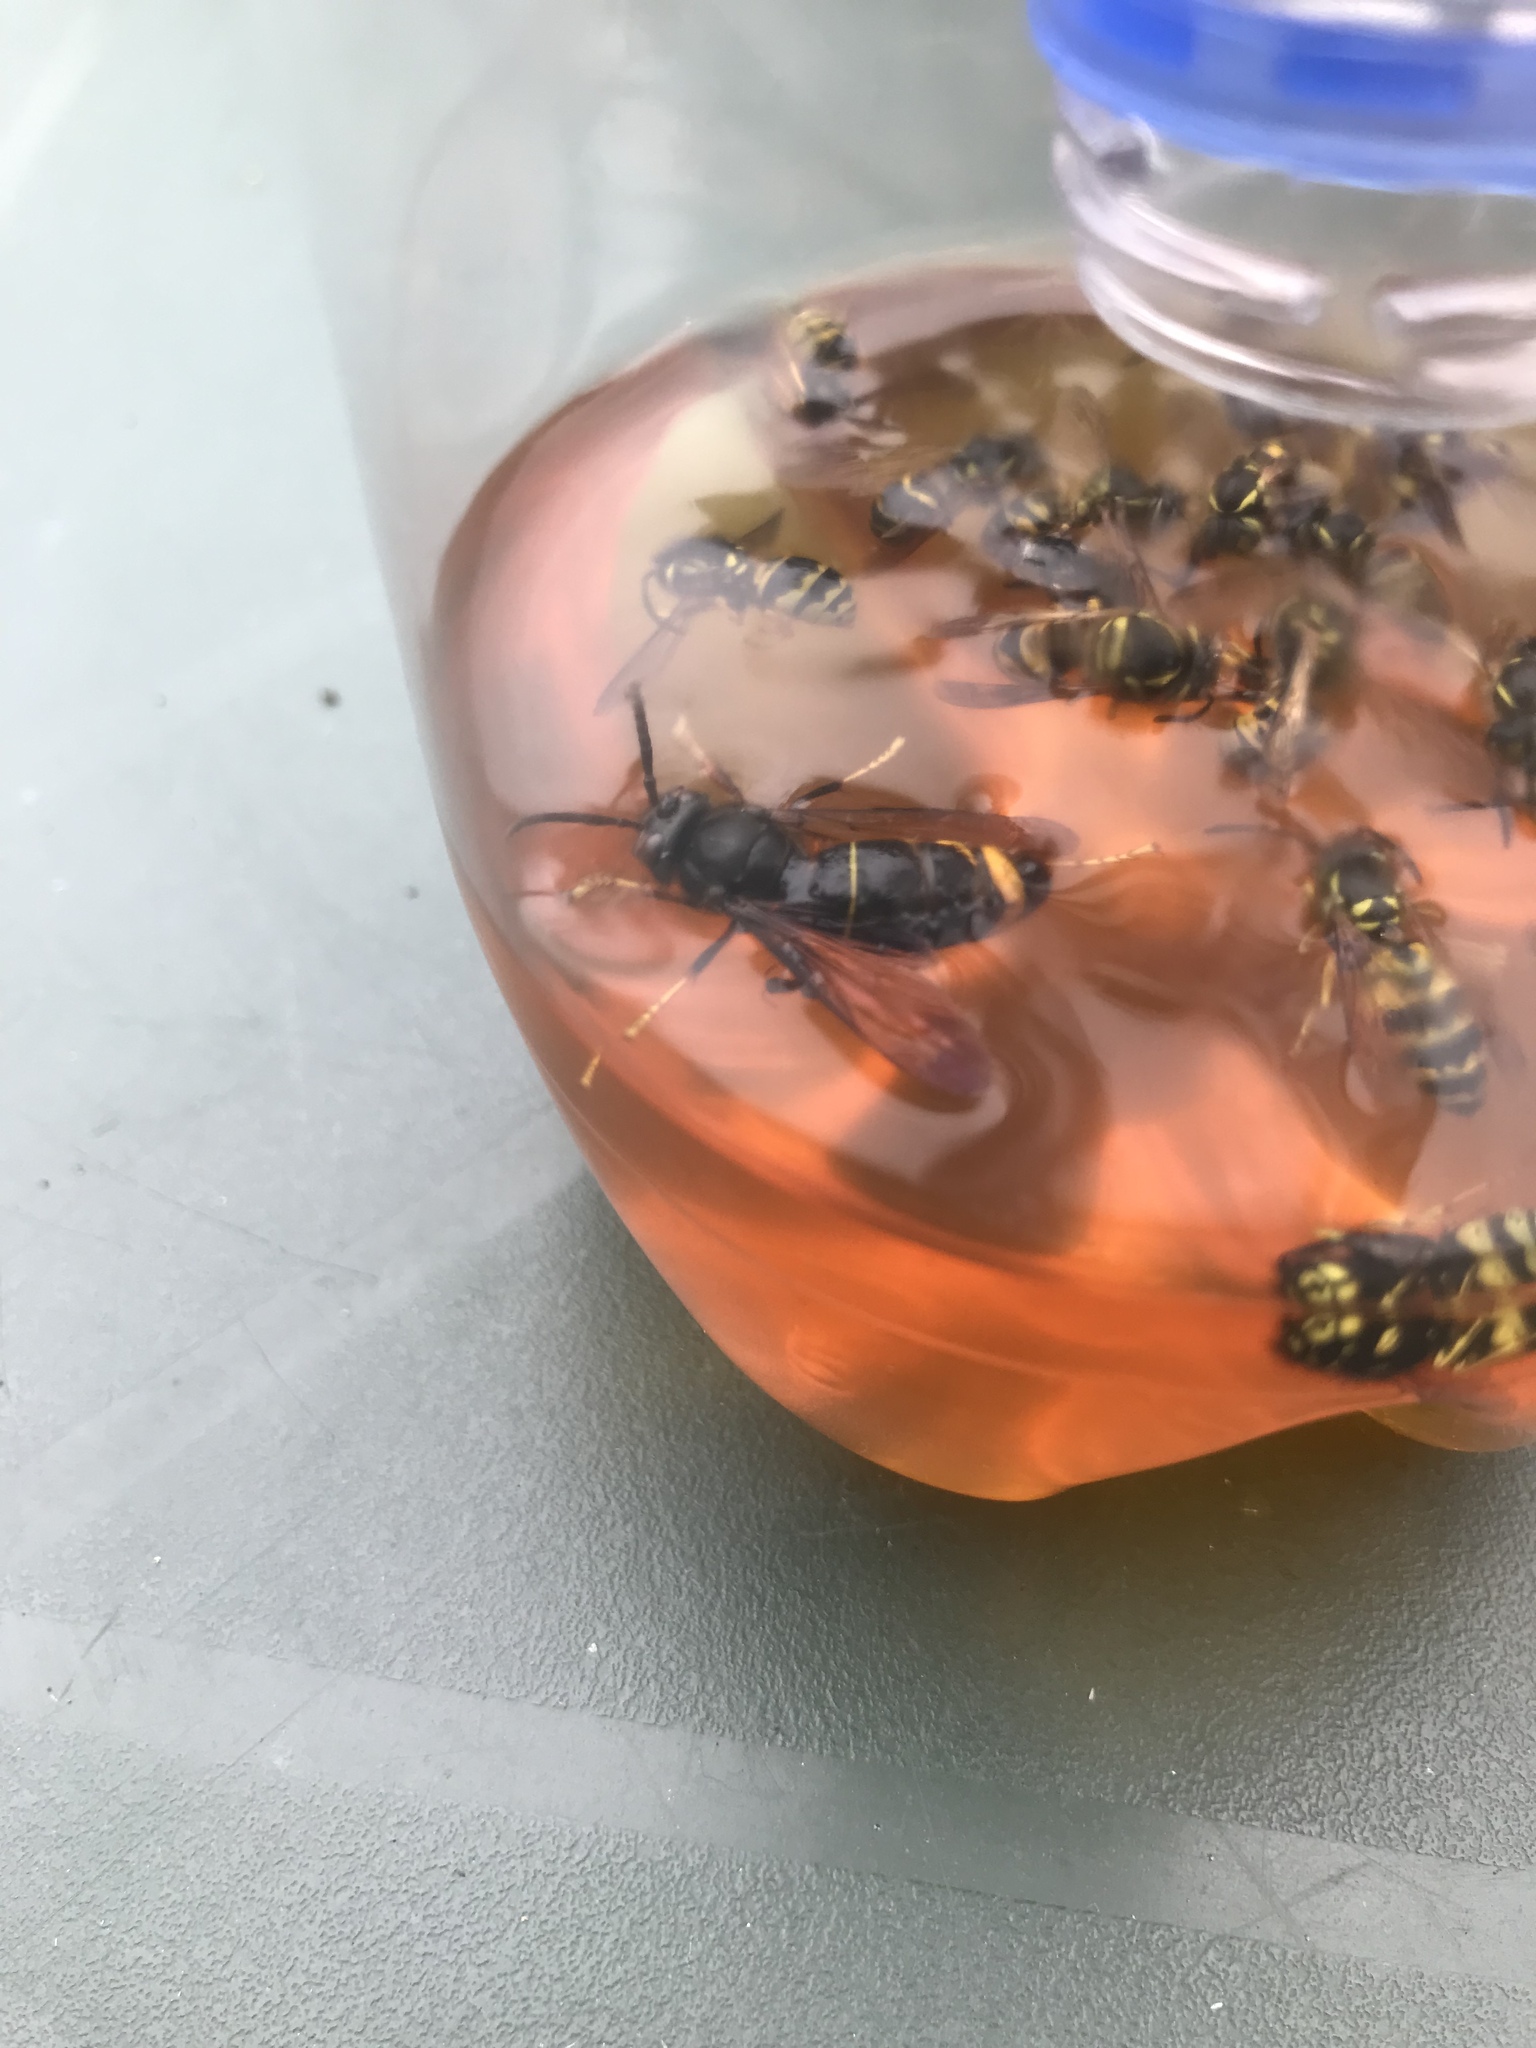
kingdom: Animalia
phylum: Arthropoda
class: Insecta
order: Hymenoptera
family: Vespidae
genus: Vespa
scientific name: Vespa velutina
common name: Asian hornet
